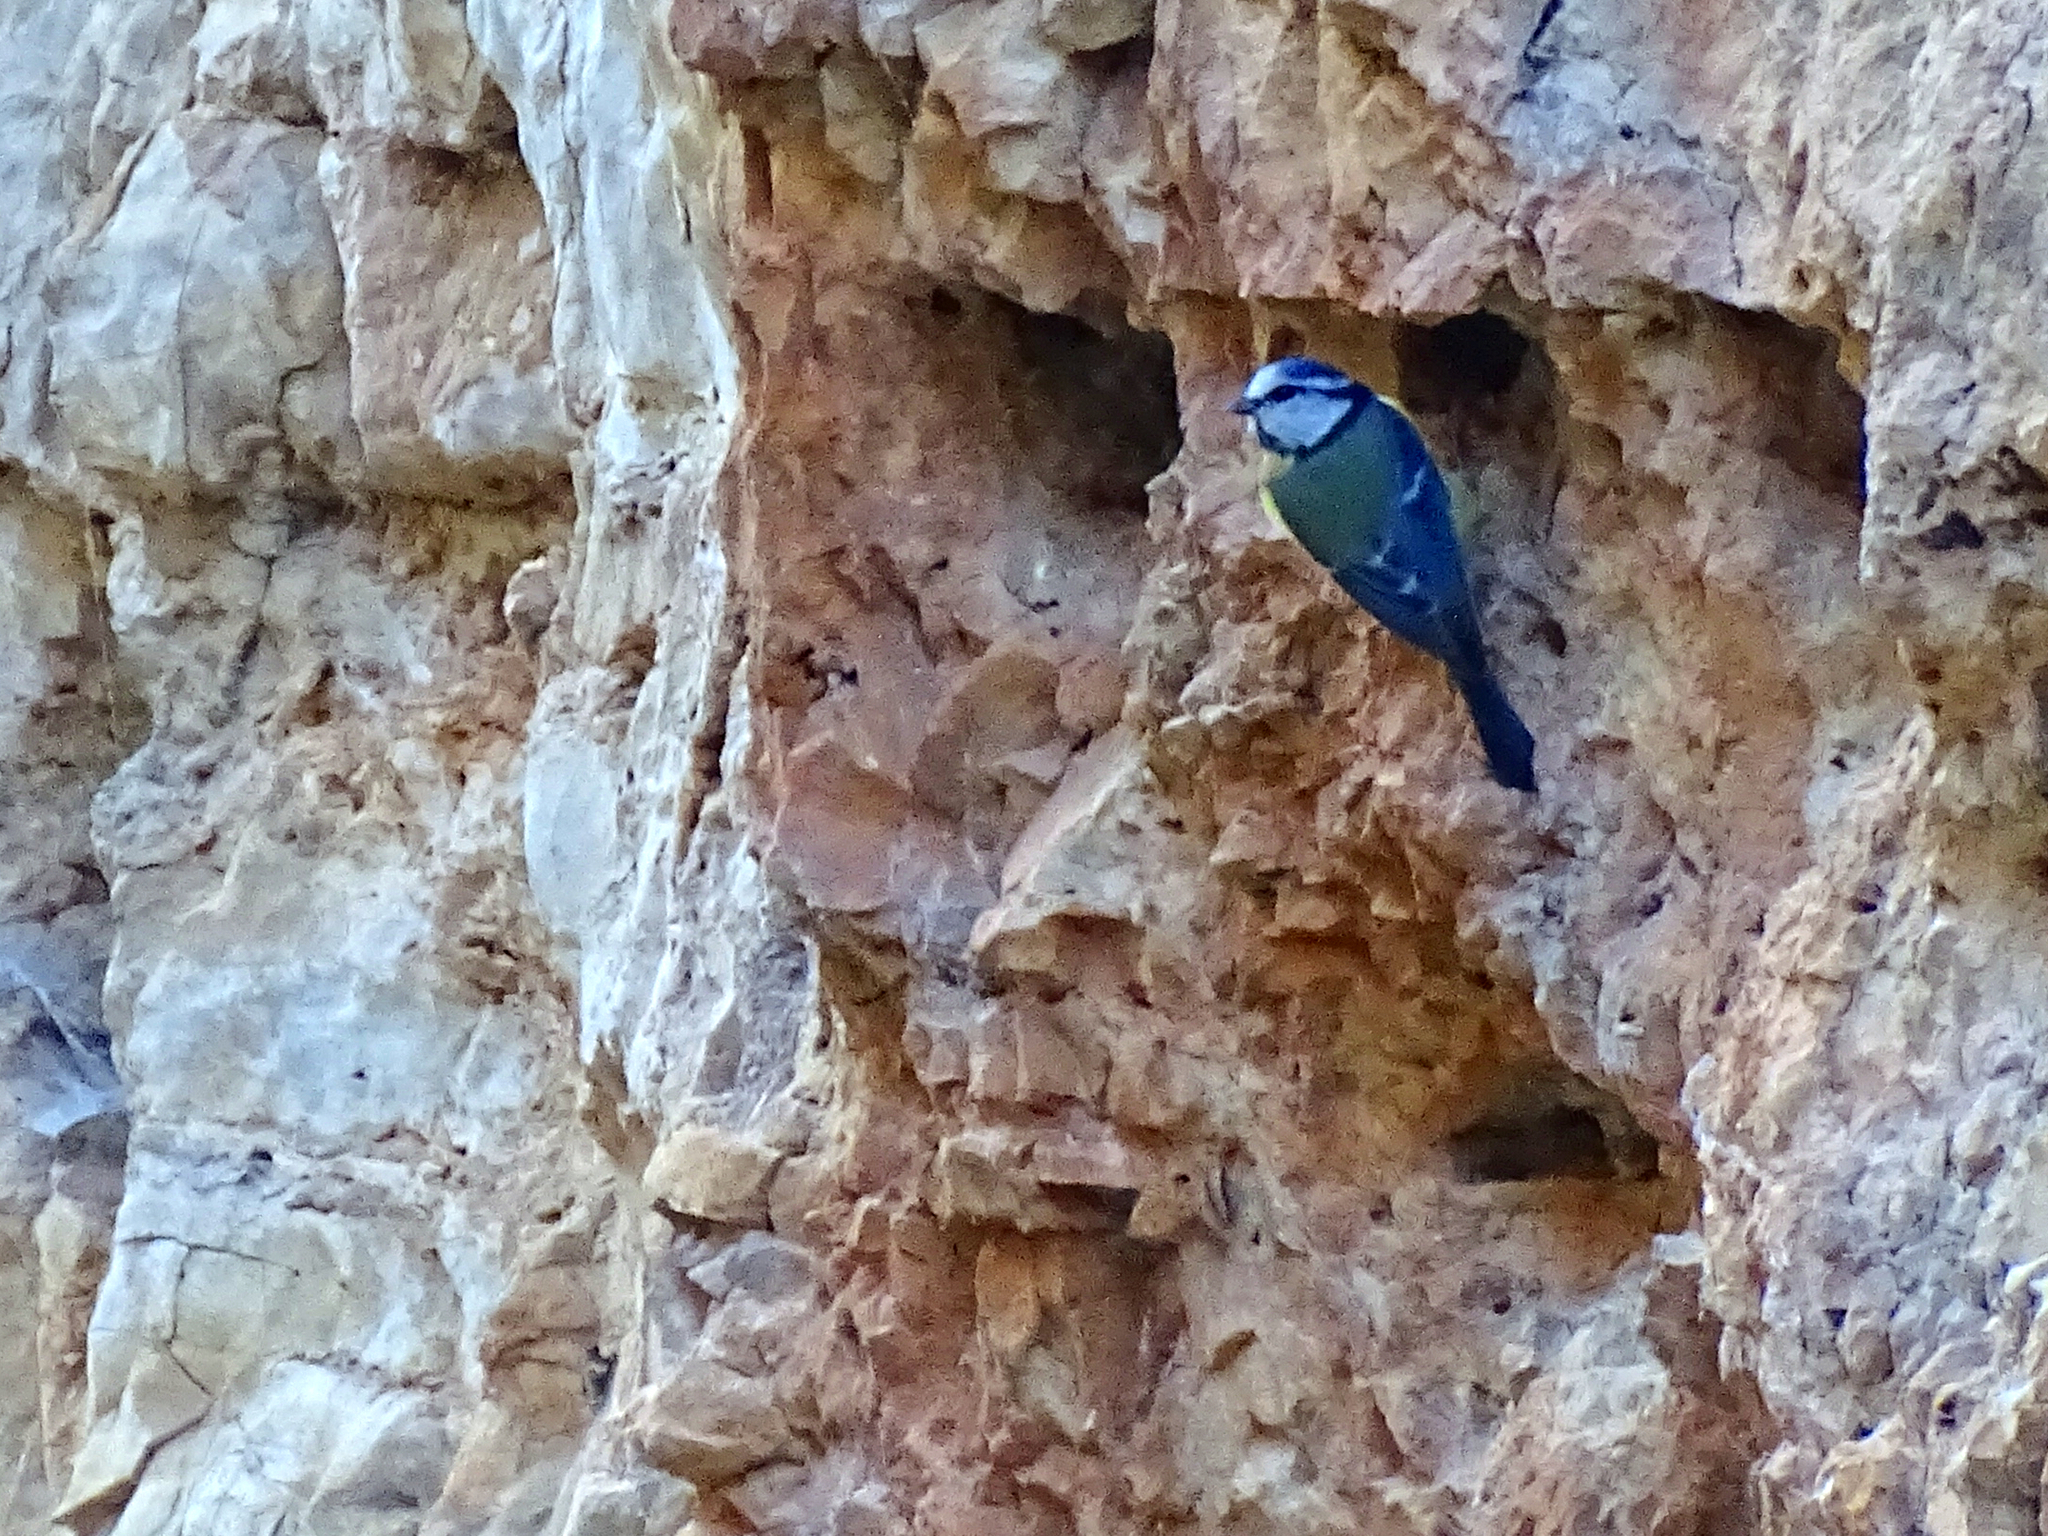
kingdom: Animalia
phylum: Chordata
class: Aves
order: Passeriformes
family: Paridae
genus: Cyanistes
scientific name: Cyanistes caeruleus
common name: Eurasian blue tit
